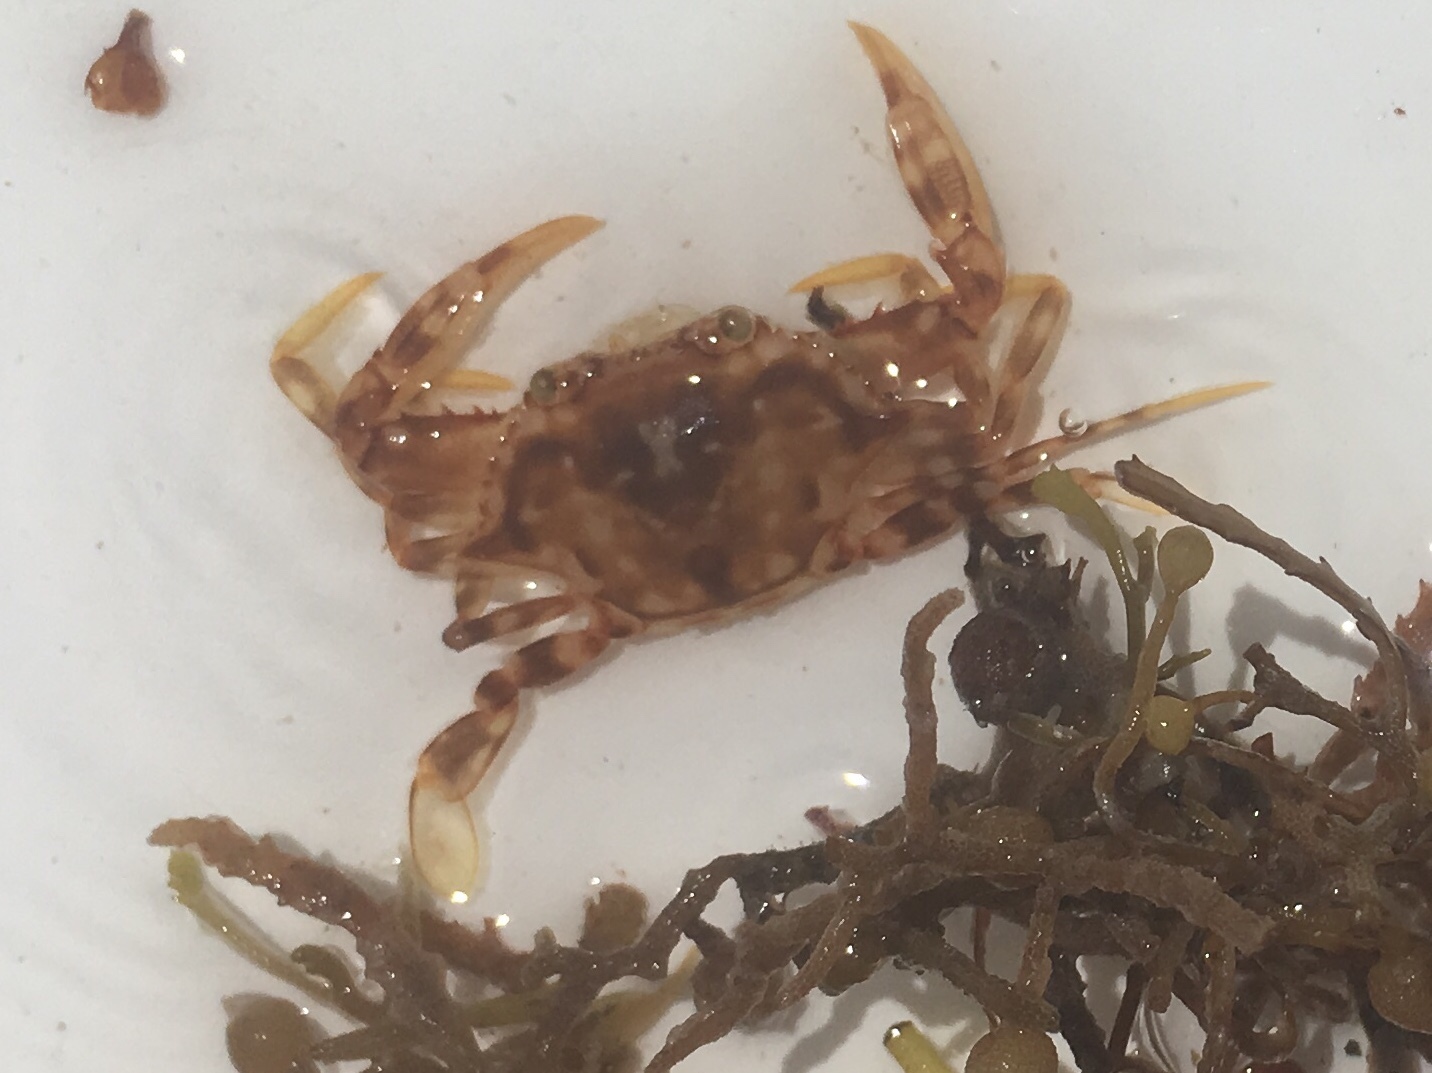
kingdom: Animalia
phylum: Arthropoda
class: Malacostraca
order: Decapoda
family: Portunidae
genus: Portunus
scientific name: Portunus sayi
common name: Sargassum crab
